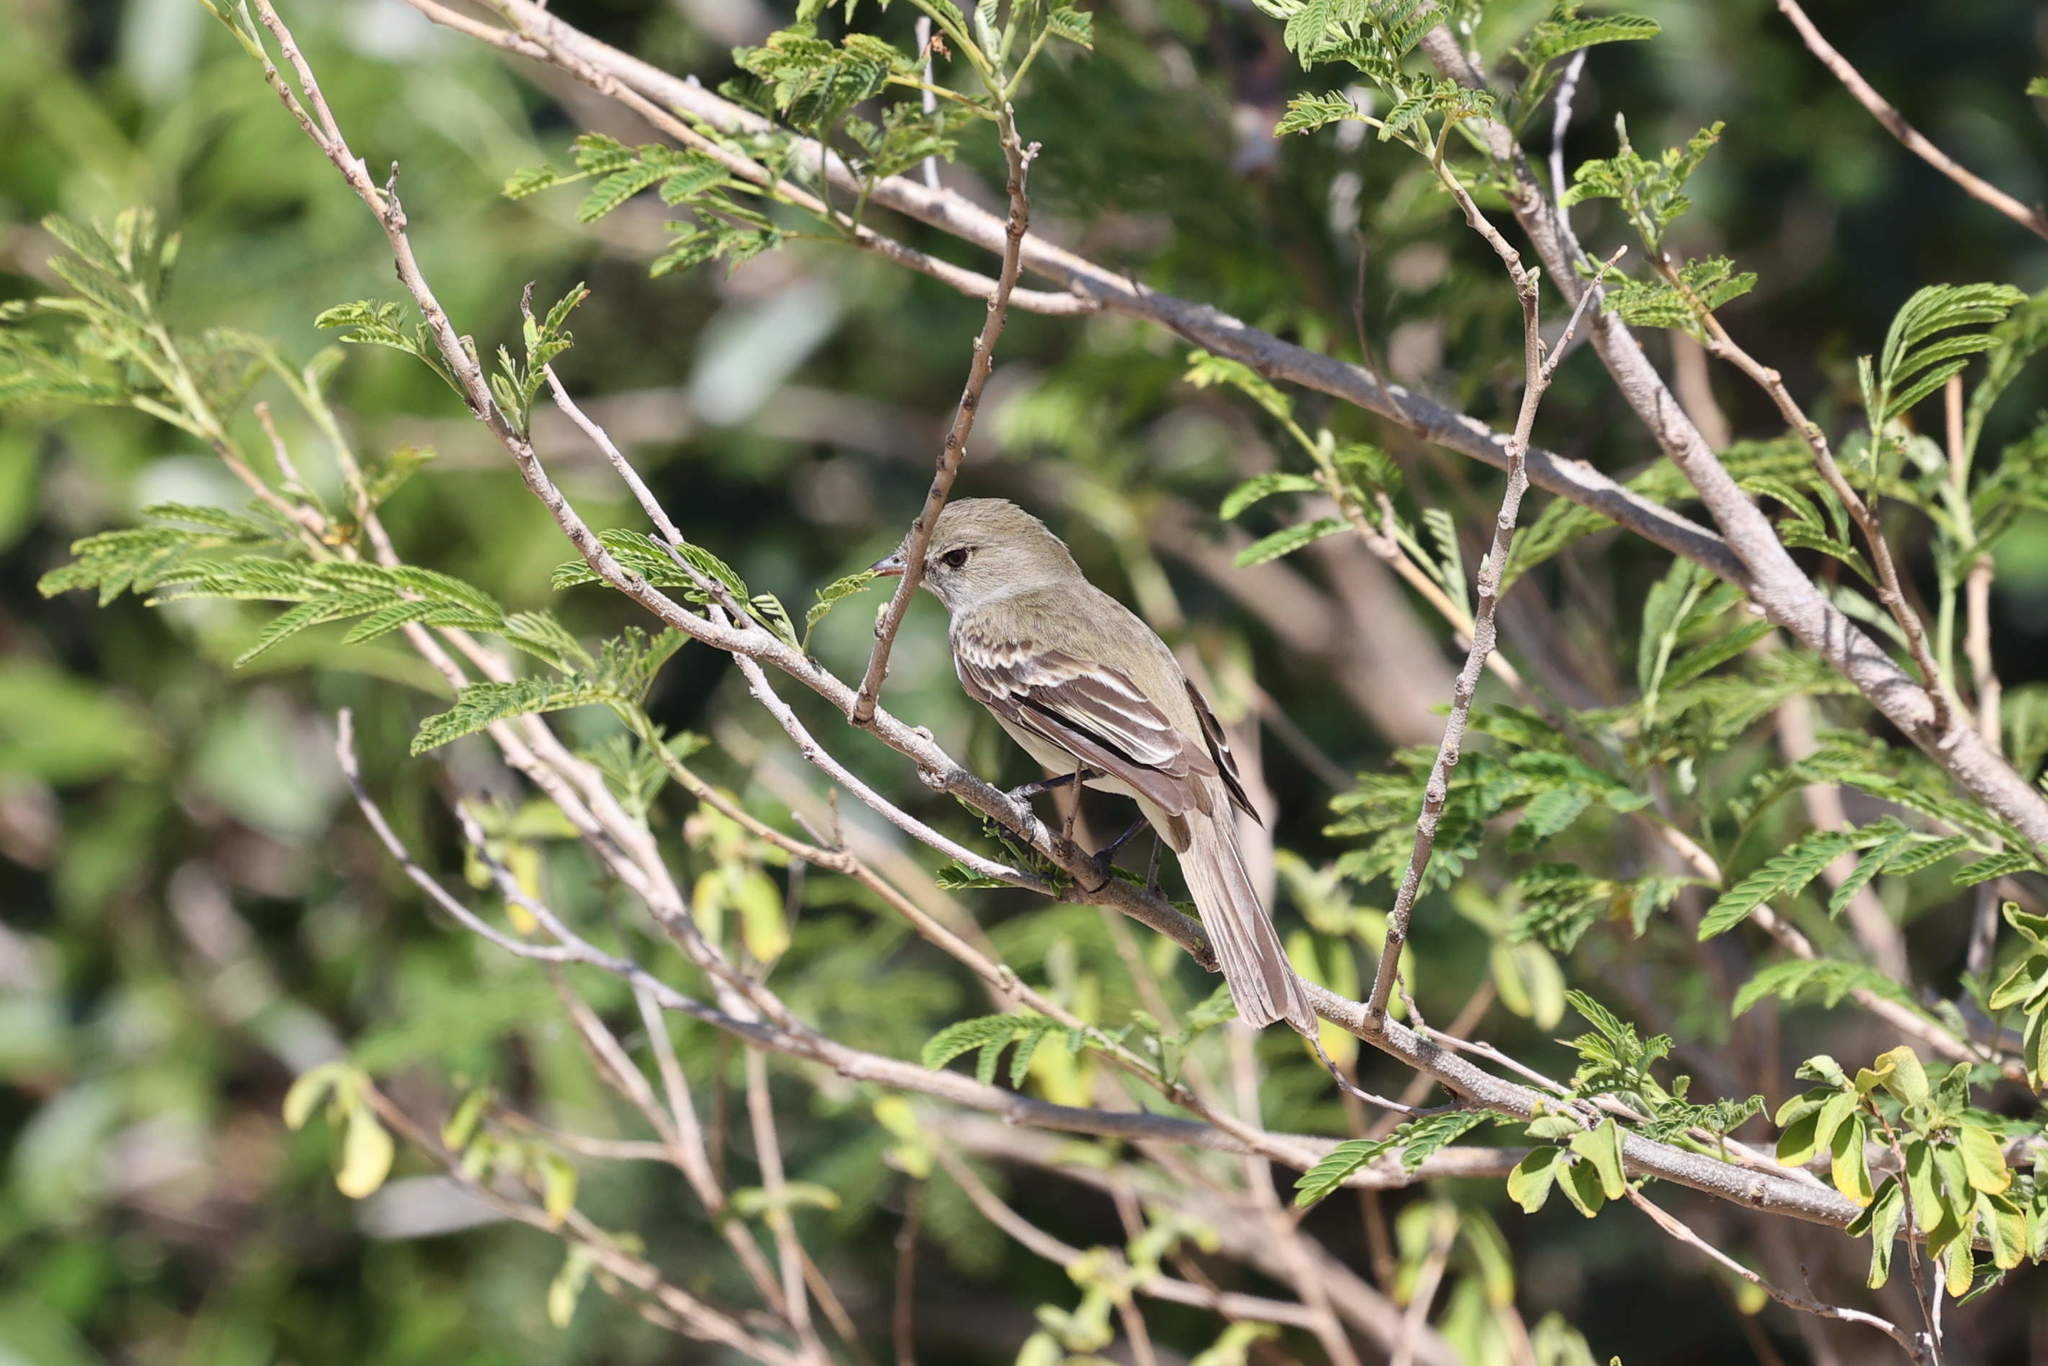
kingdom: Animalia
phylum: Chordata
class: Aves
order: Passeriformes
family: Tyrannidae
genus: Elaenia
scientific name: Elaenia martinica
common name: Caribbean elaenia
